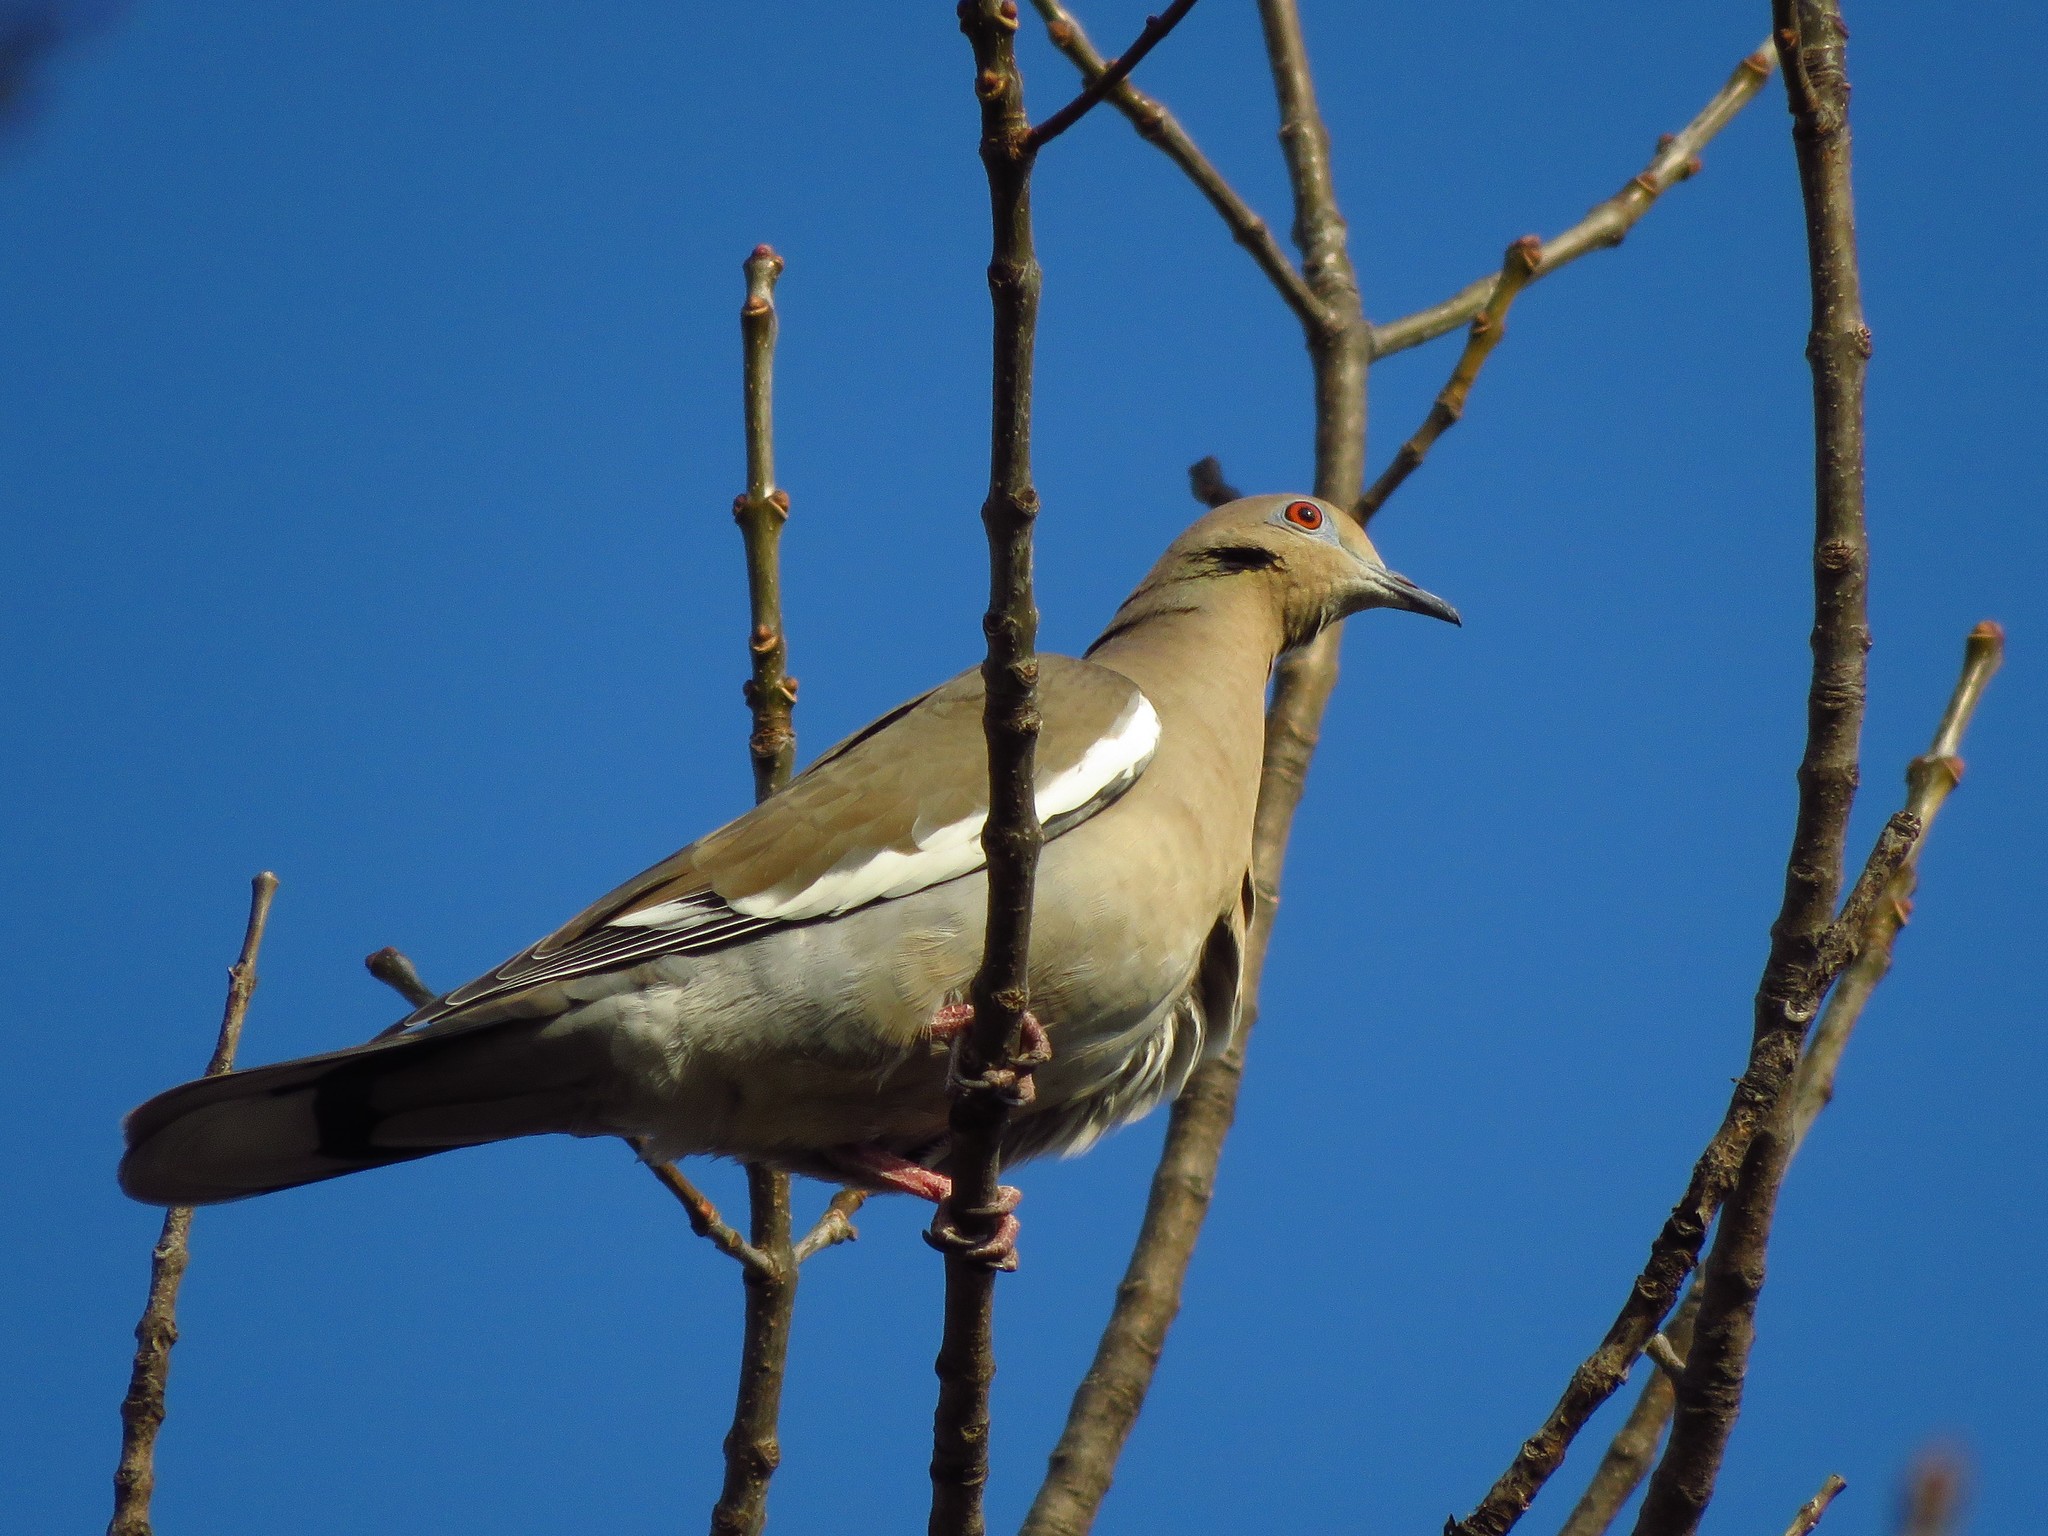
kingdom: Animalia
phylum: Chordata
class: Aves
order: Columbiformes
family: Columbidae
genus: Zenaida
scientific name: Zenaida asiatica
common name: White-winged dove
